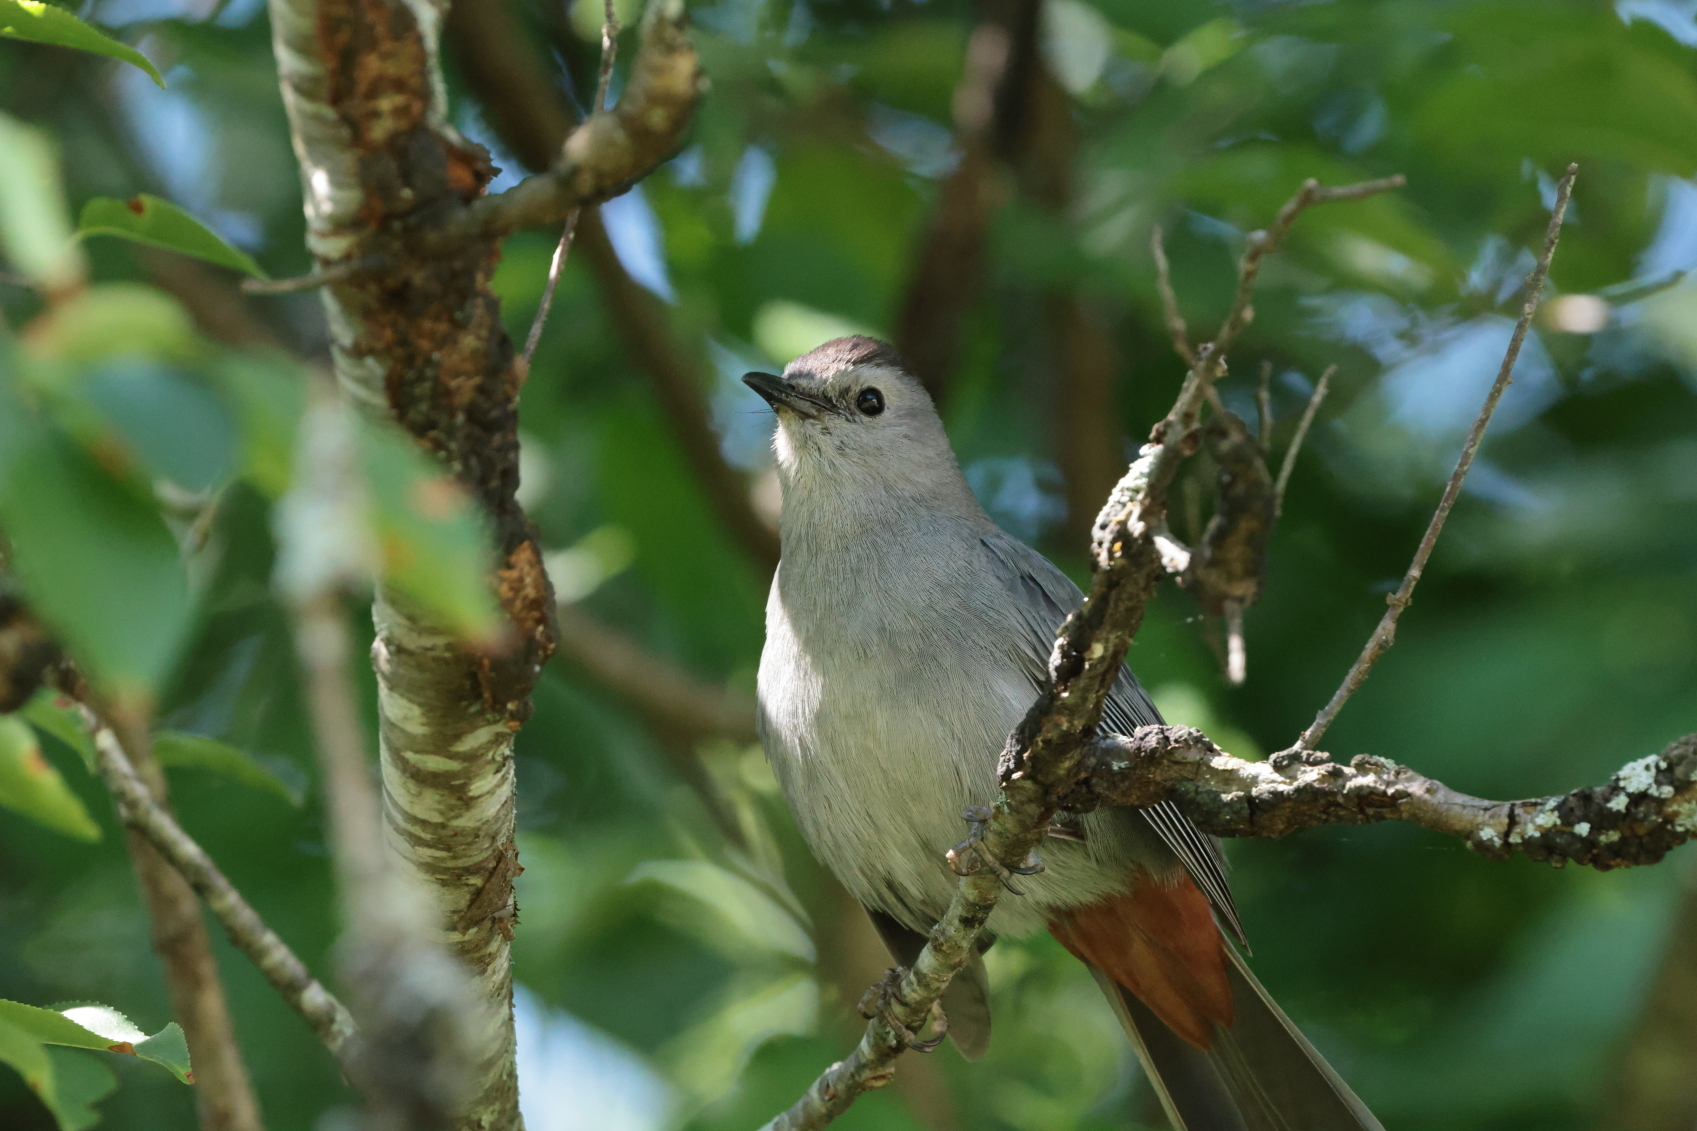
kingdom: Animalia
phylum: Chordata
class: Aves
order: Passeriformes
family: Mimidae
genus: Dumetella
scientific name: Dumetella carolinensis
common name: Gray catbird
